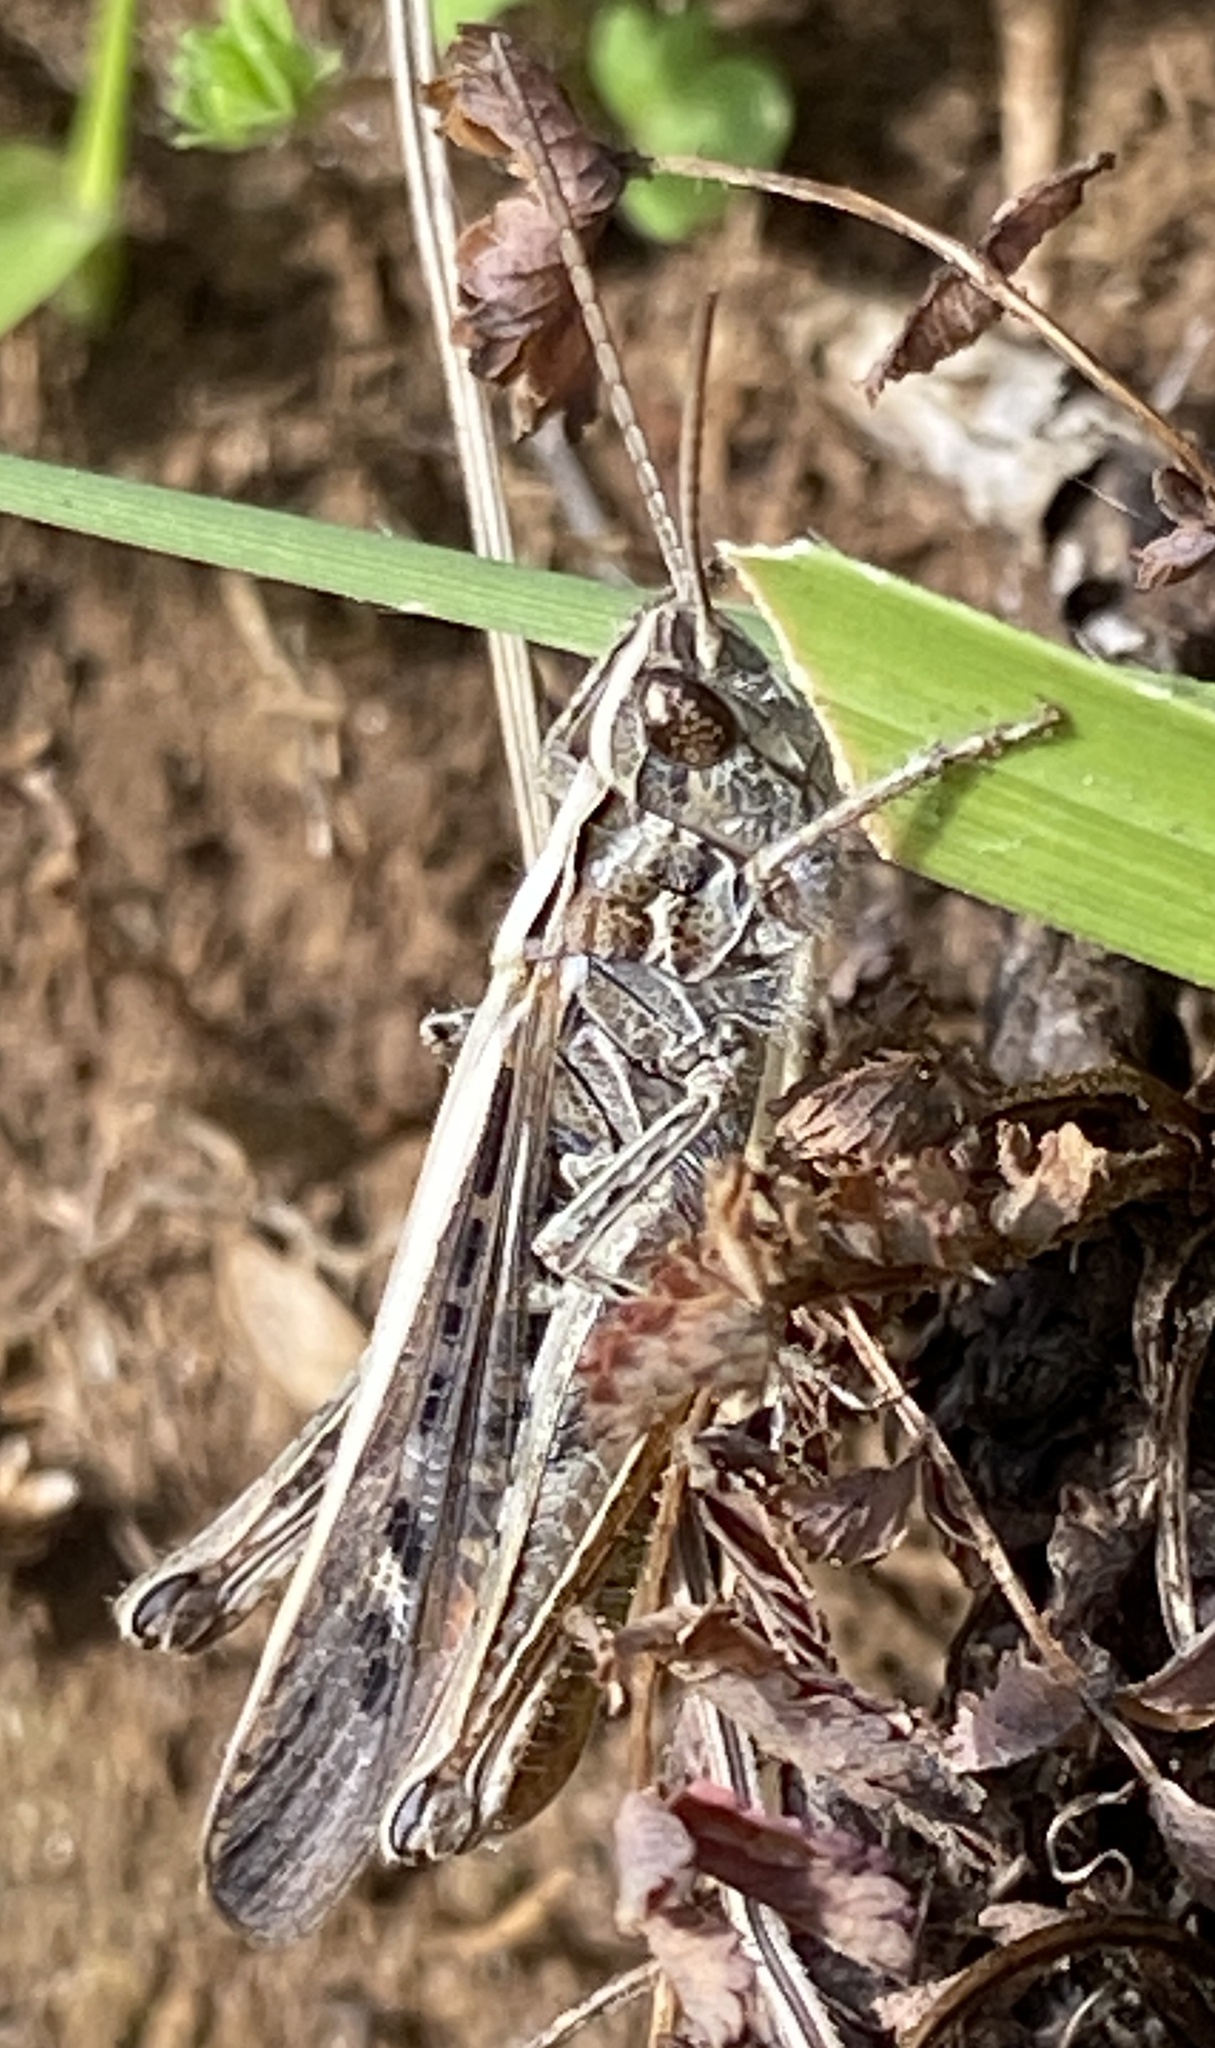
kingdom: Animalia
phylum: Arthropoda
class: Insecta
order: Orthoptera
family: Acrididae
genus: Chorthippus
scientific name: Chorthippus brunneus
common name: Field grasshopper
